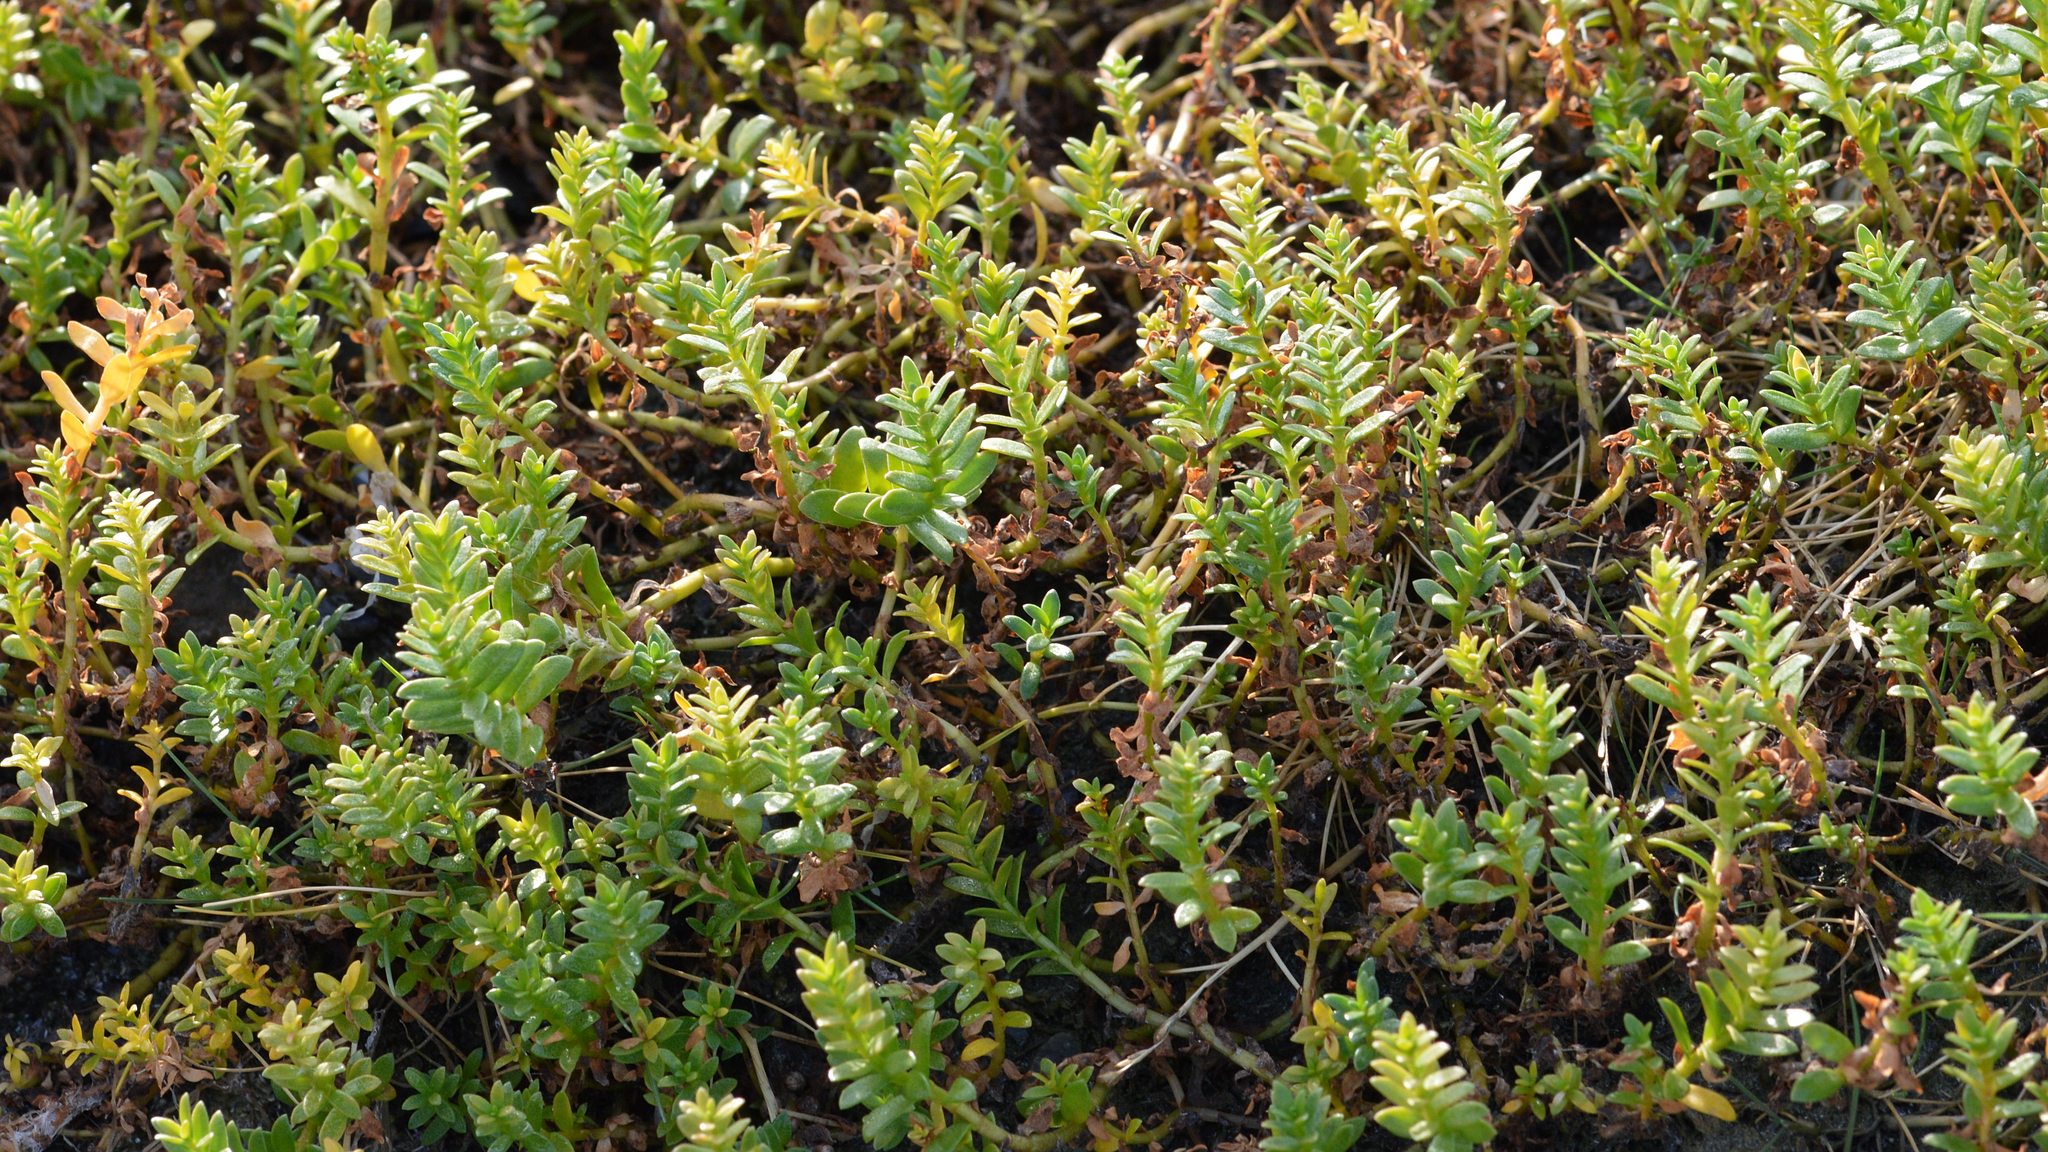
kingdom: Plantae
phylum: Tracheophyta
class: Magnoliopsida
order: Ericales
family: Primulaceae
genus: Lysimachia
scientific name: Lysimachia maritima
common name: Sea milkwort
